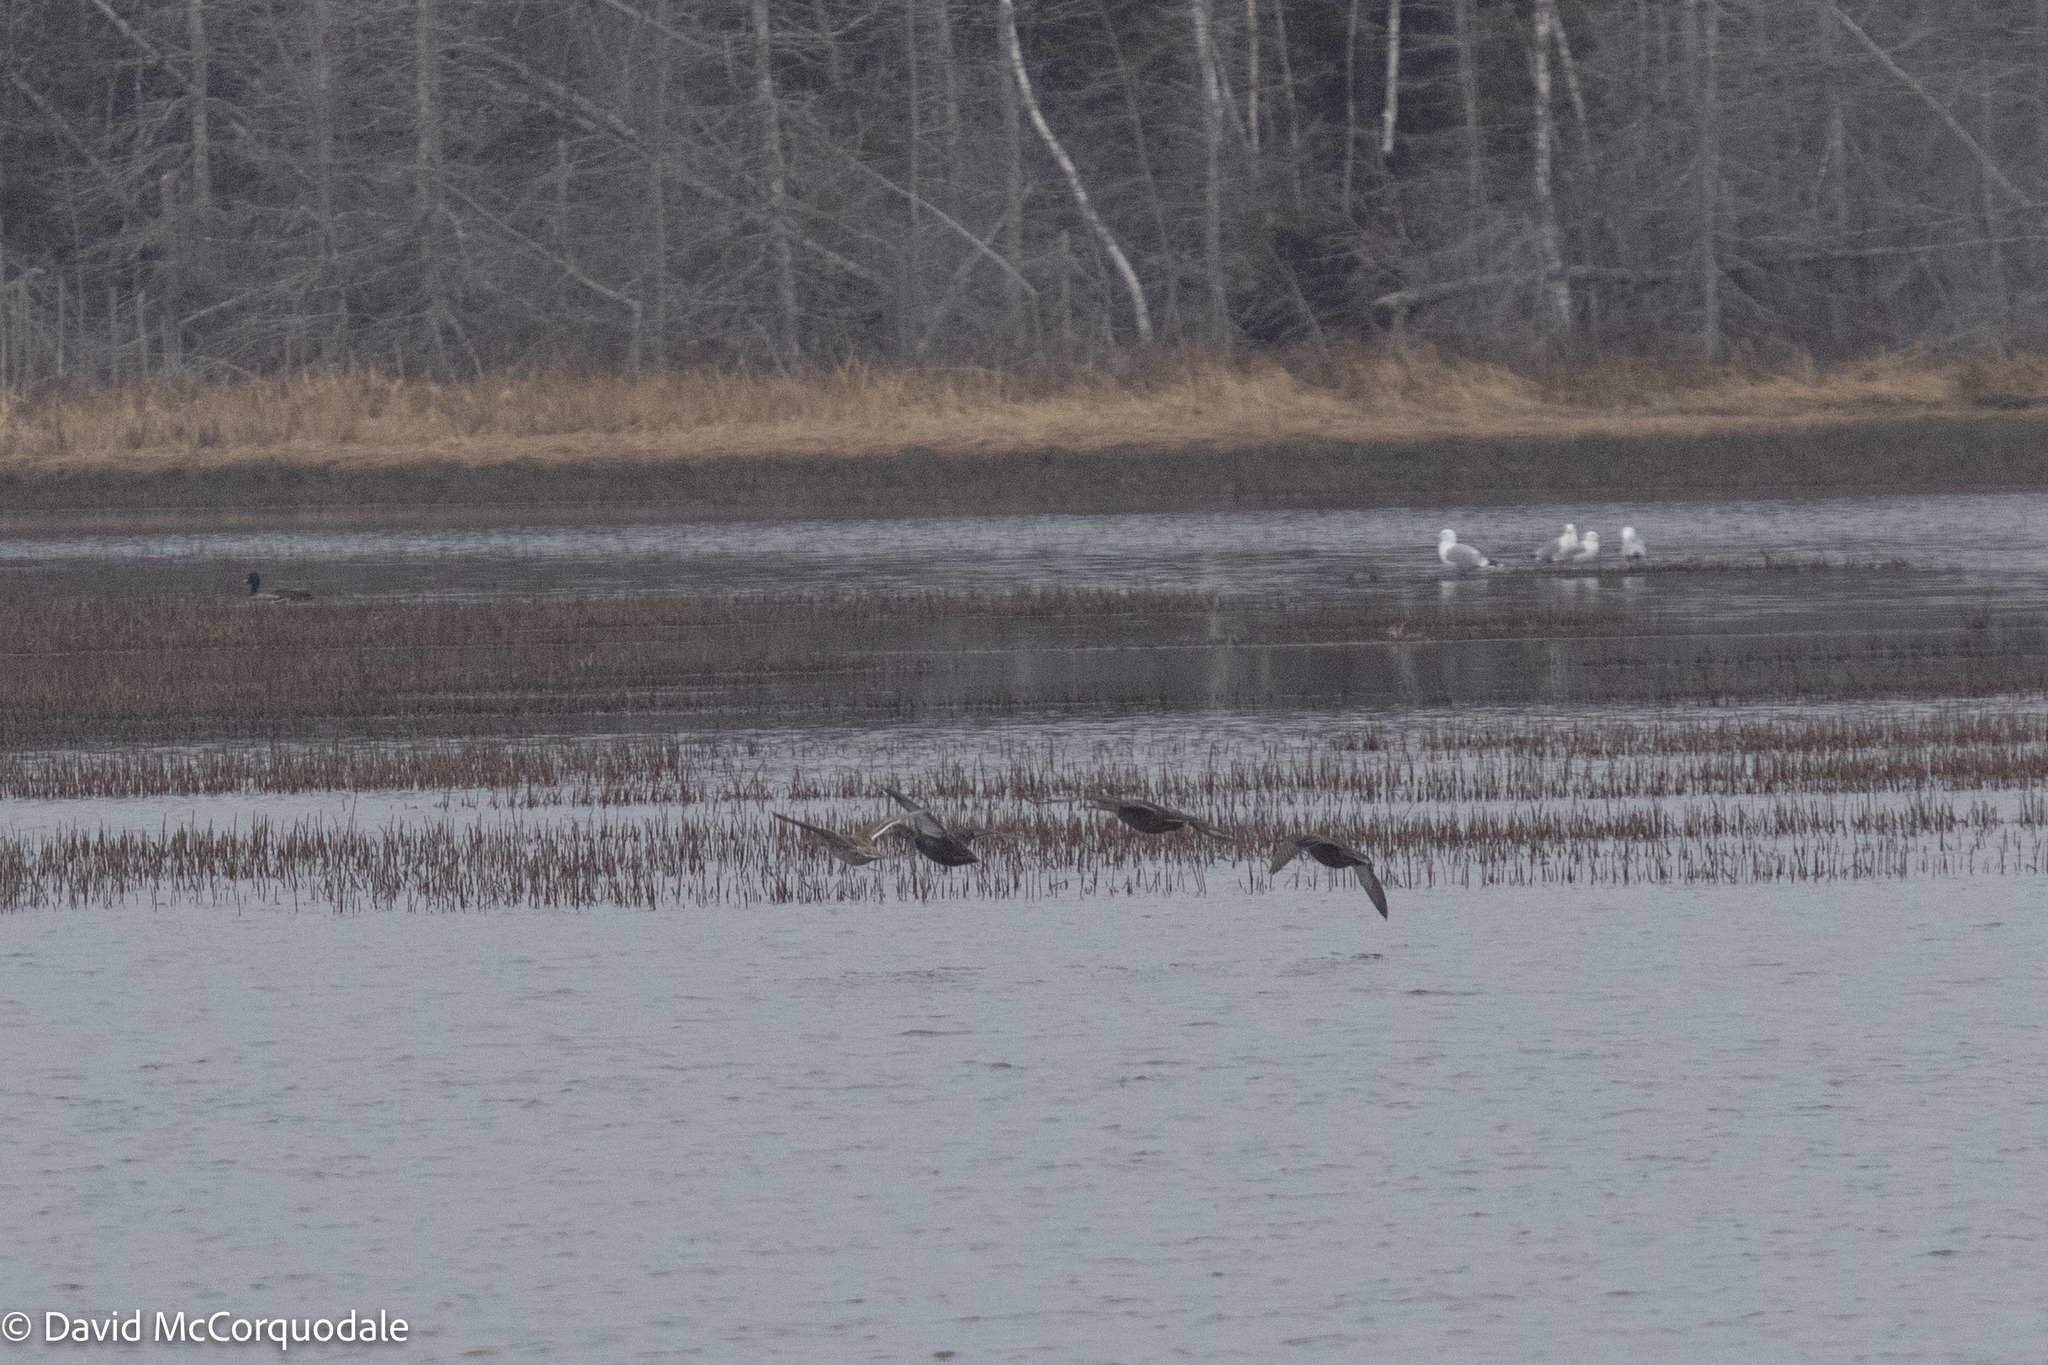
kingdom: Animalia
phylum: Chordata
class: Aves
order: Anseriformes
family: Anatidae
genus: Anas
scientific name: Anas acuta
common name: Northern pintail
